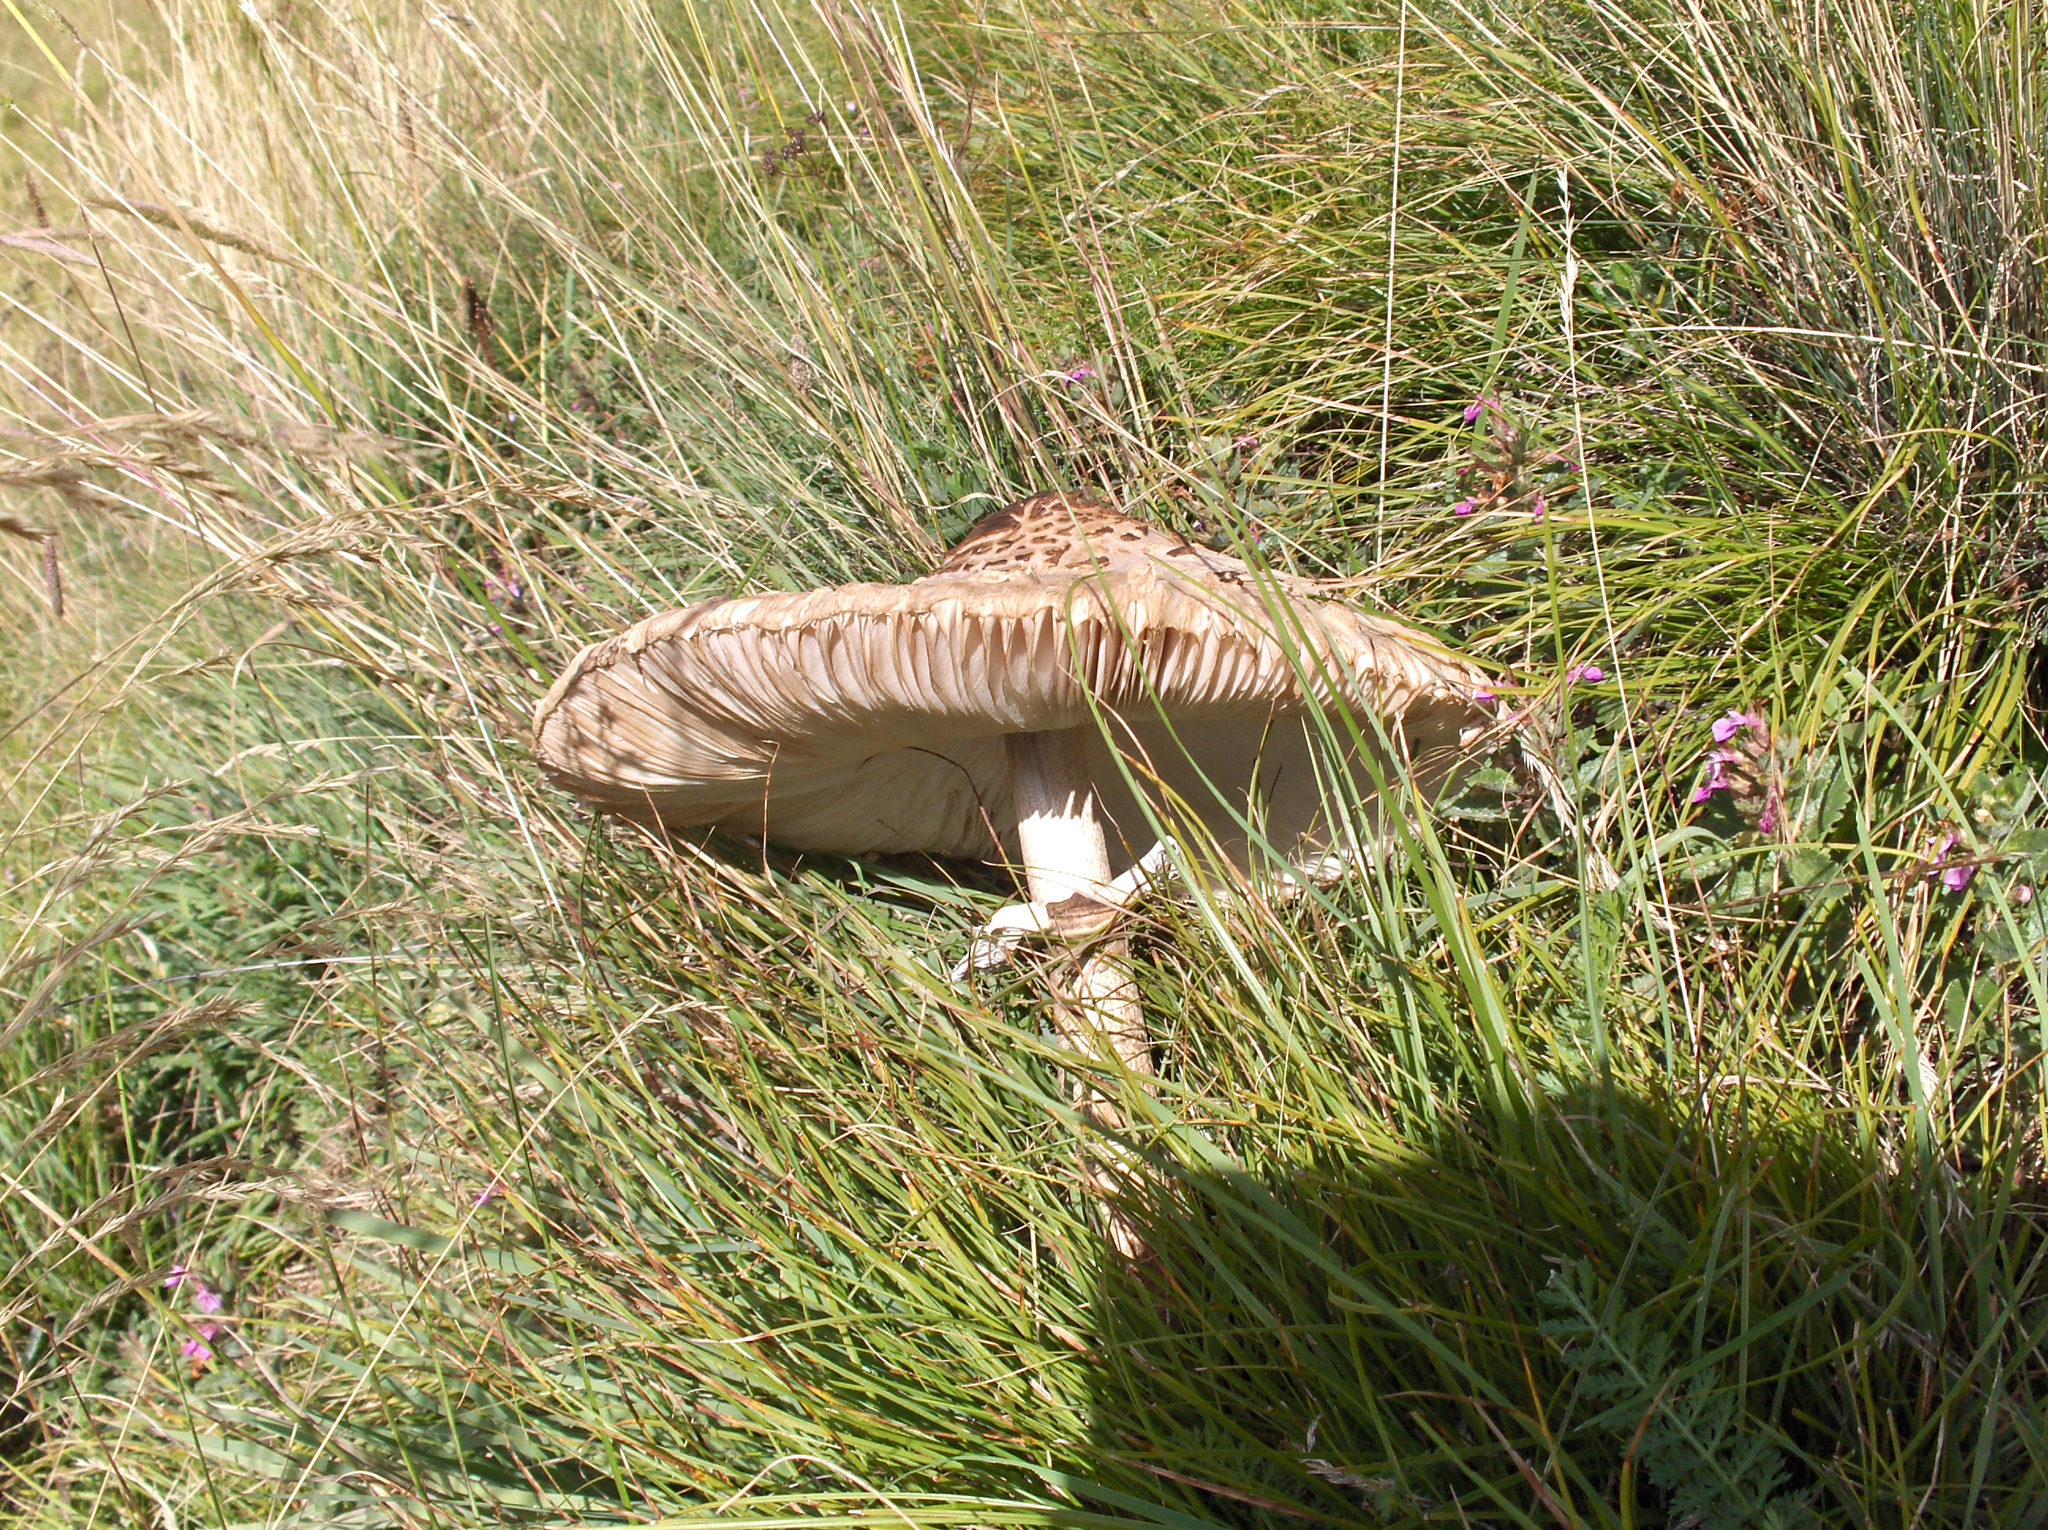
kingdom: Fungi
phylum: Basidiomycota
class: Agaricomycetes
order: Agaricales
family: Agaricaceae
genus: Macrolepiota
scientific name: Macrolepiota procera
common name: Parasol
